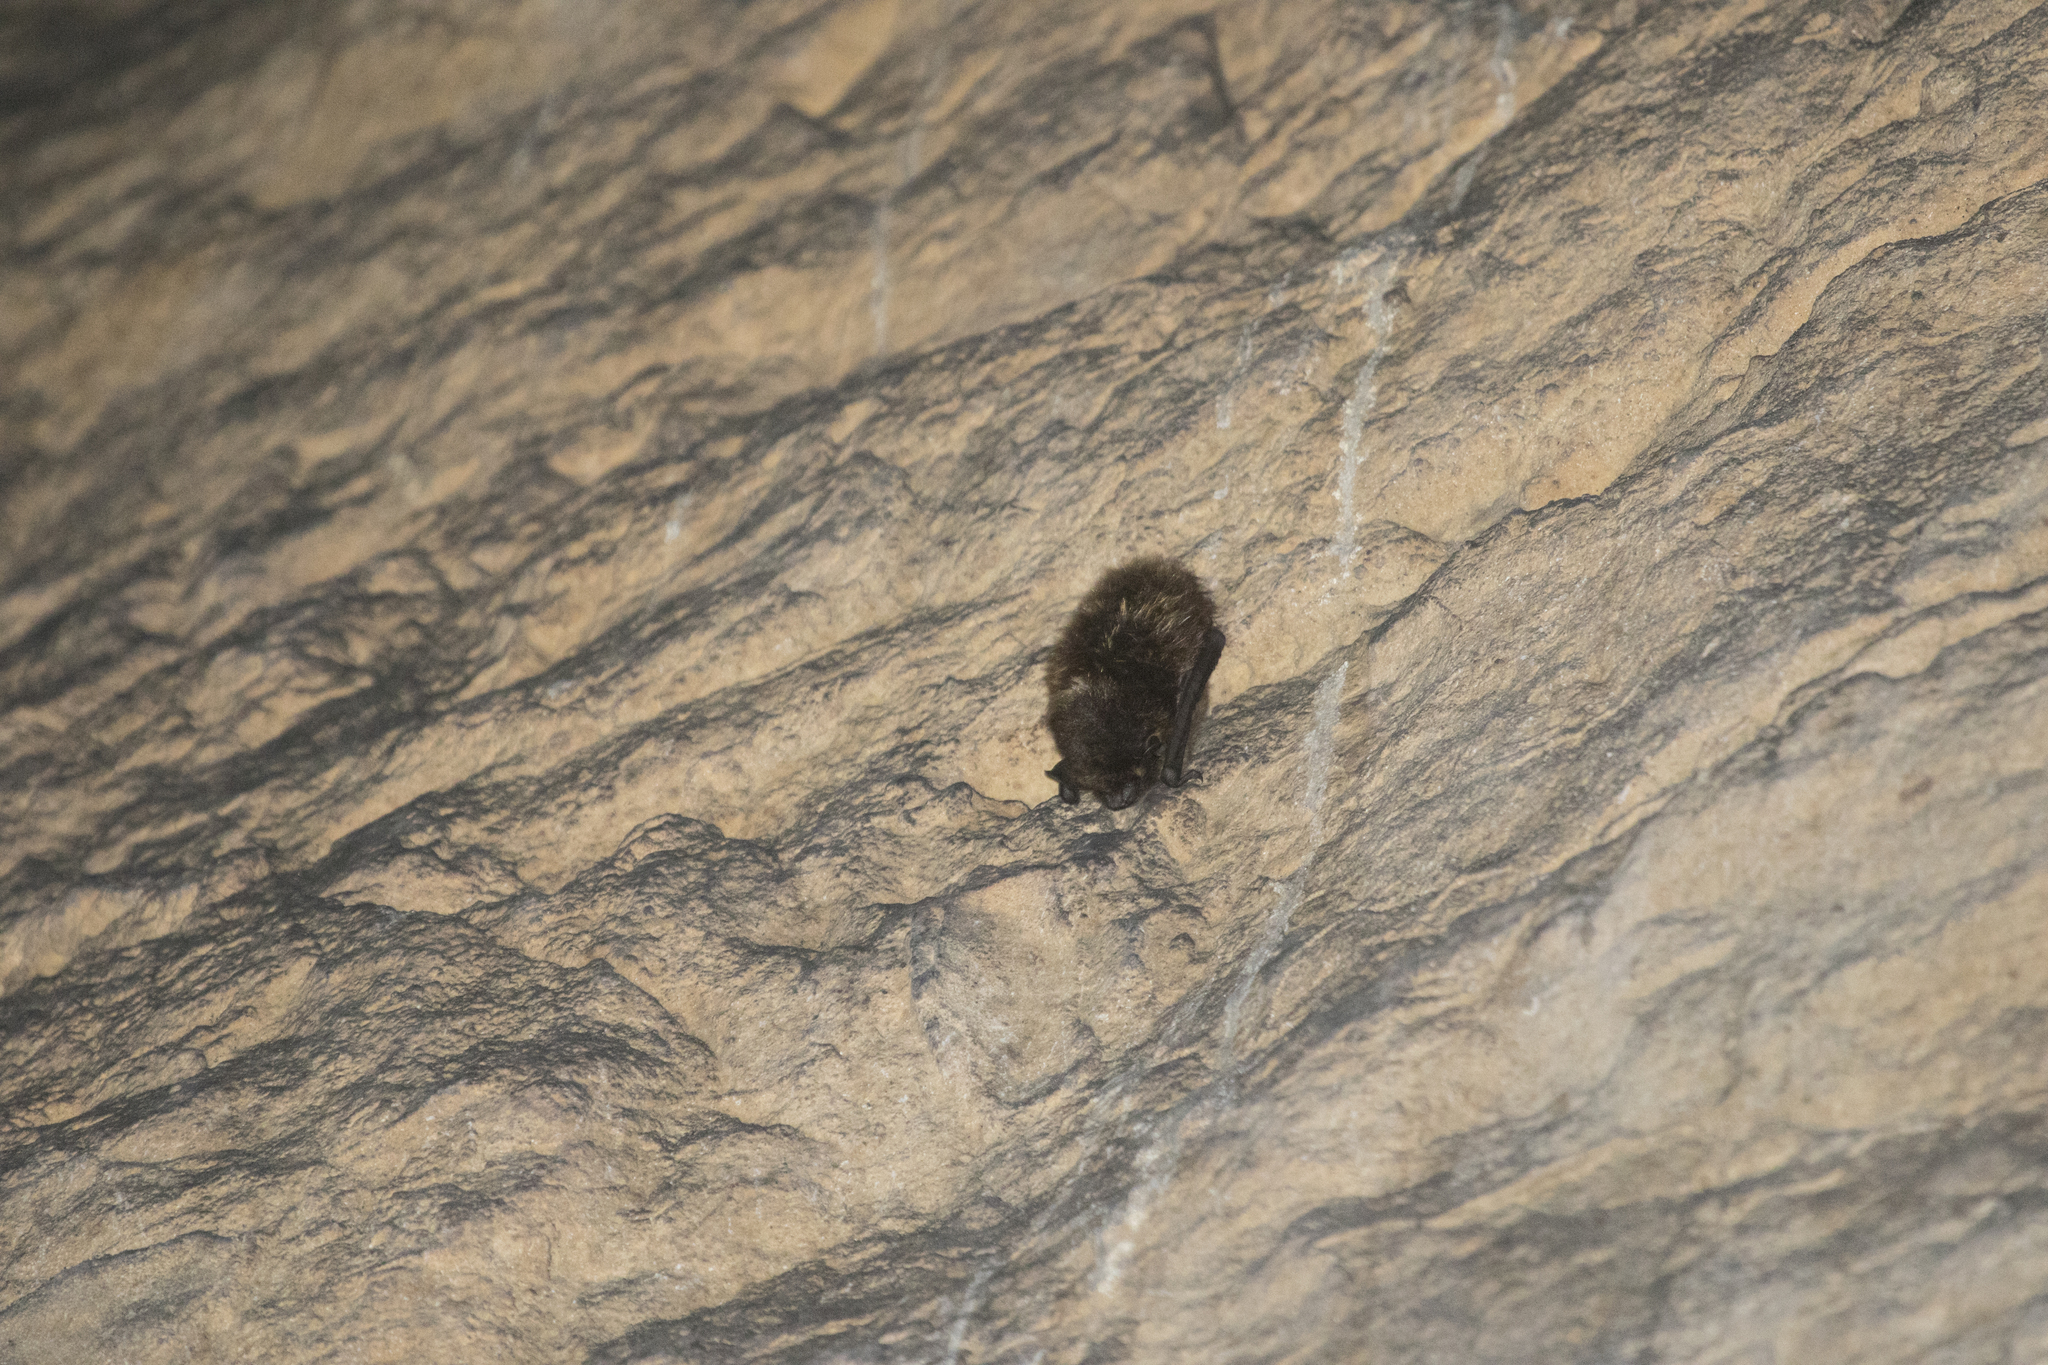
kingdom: Animalia
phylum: Chordata
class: Mammalia
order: Chiroptera
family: Vespertilionidae
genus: Eptesicus
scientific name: Eptesicus nilssonii
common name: Northern bat
